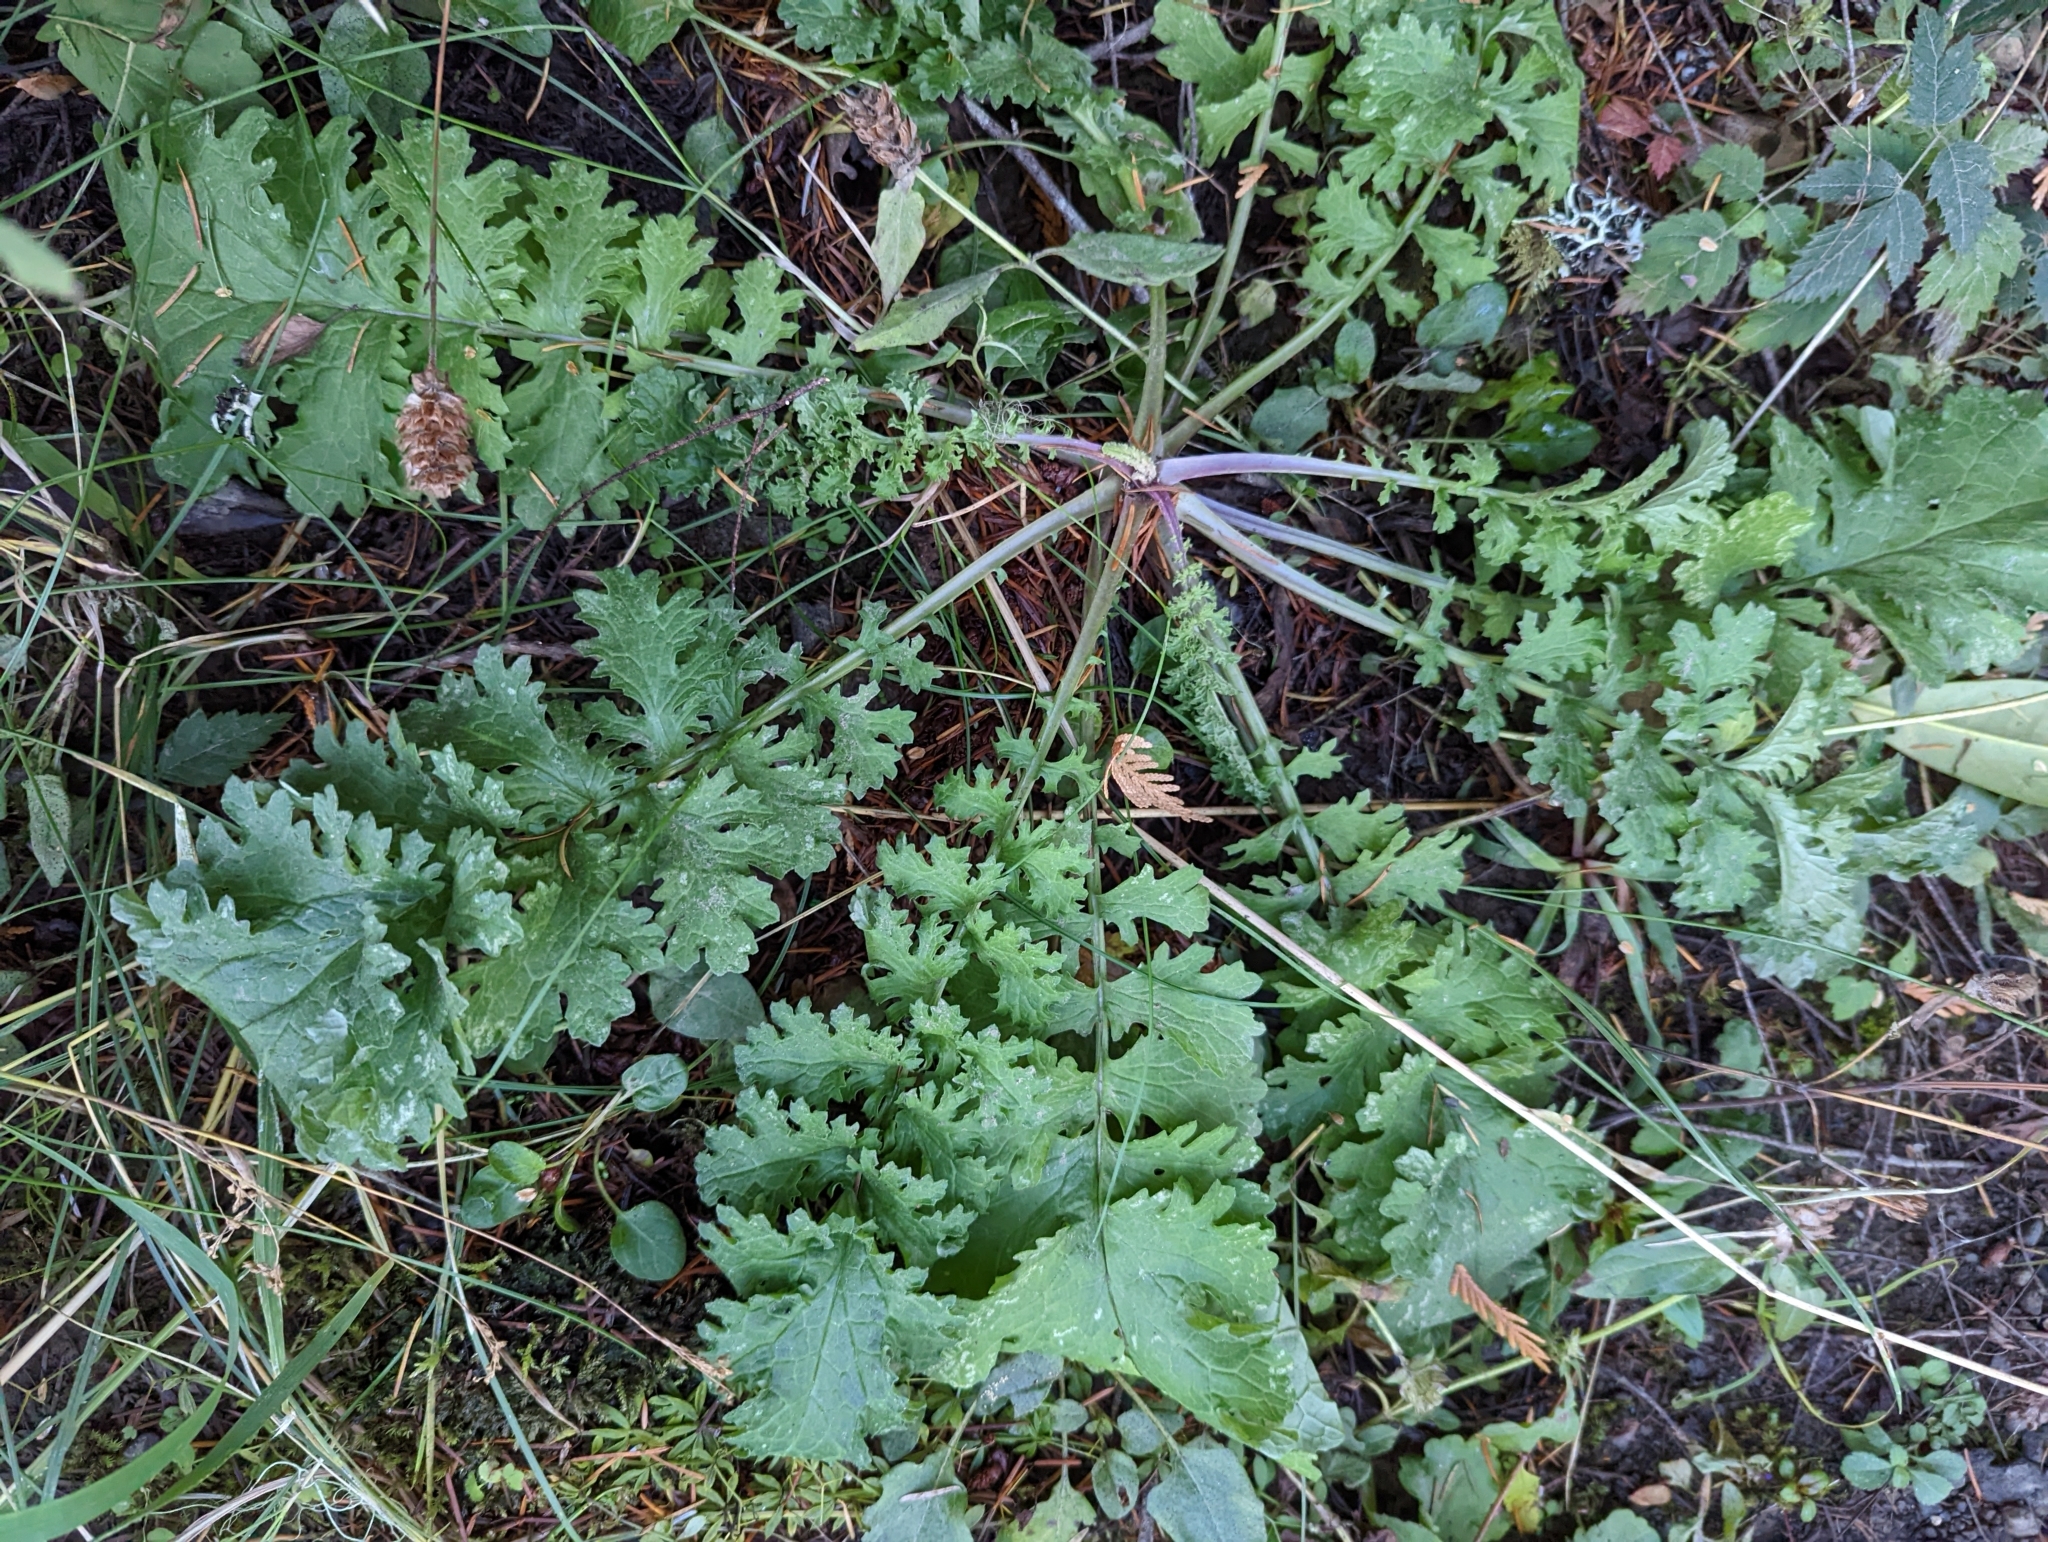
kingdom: Plantae
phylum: Tracheophyta
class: Magnoliopsida
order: Asterales
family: Asteraceae
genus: Jacobaea
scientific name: Jacobaea vulgaris
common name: Stinking willie
